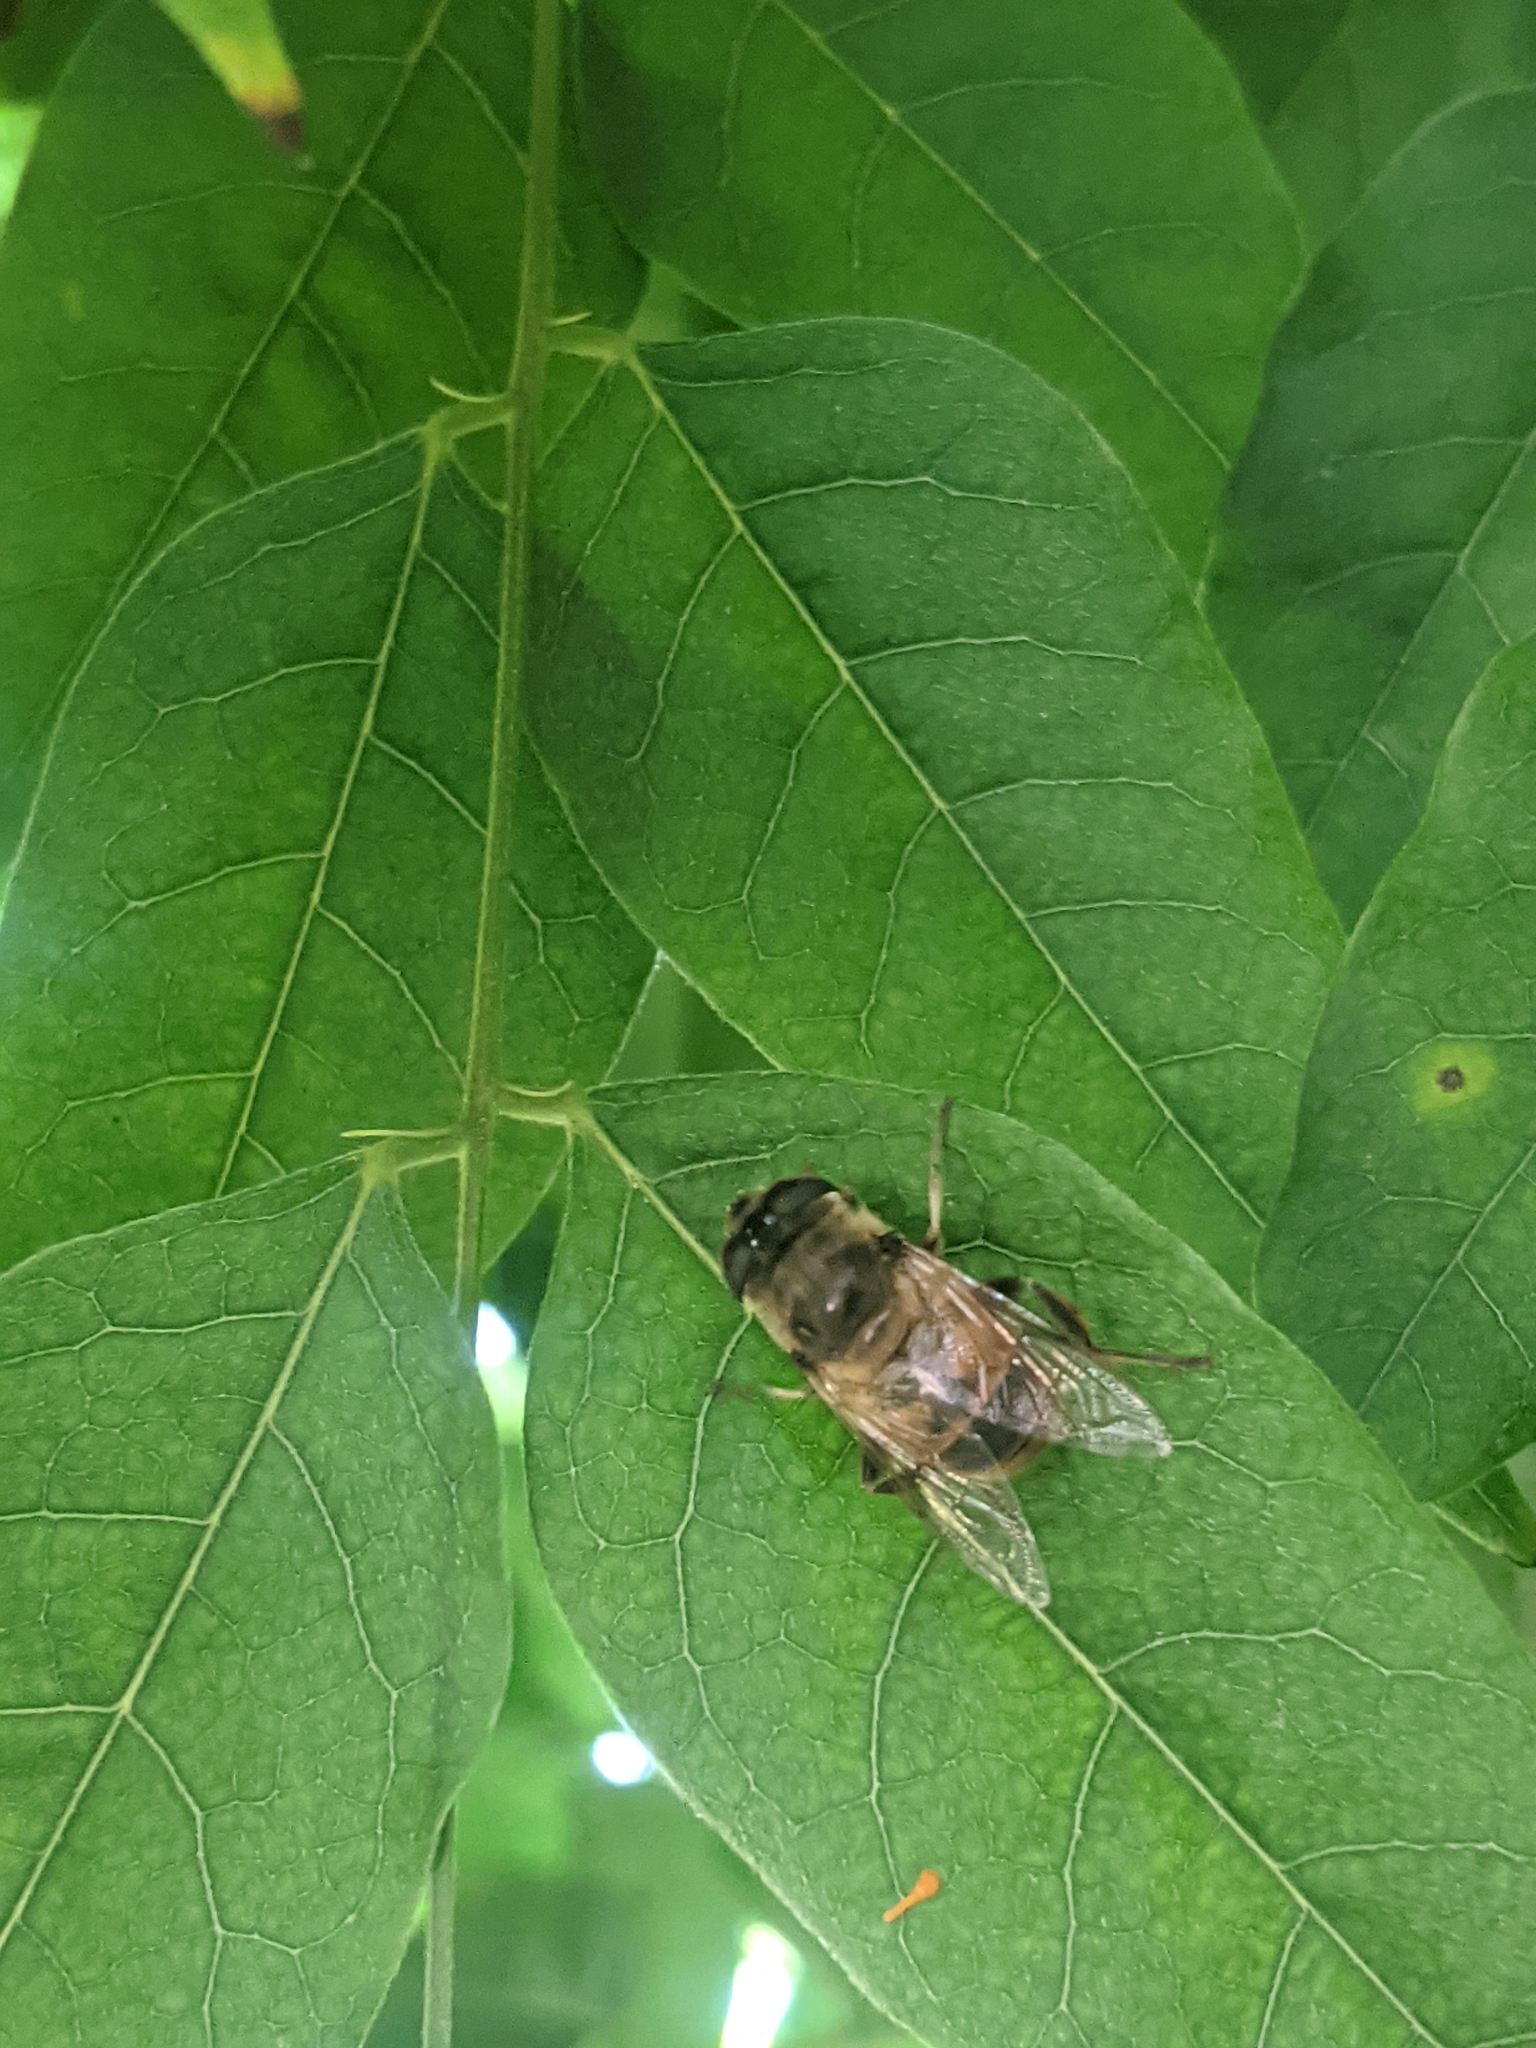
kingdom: Animalia
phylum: Arthropoda
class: Insecta
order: Diptera
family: Syrphidae
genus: Eristalis
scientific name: Eristalis tenax
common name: Drone fly
